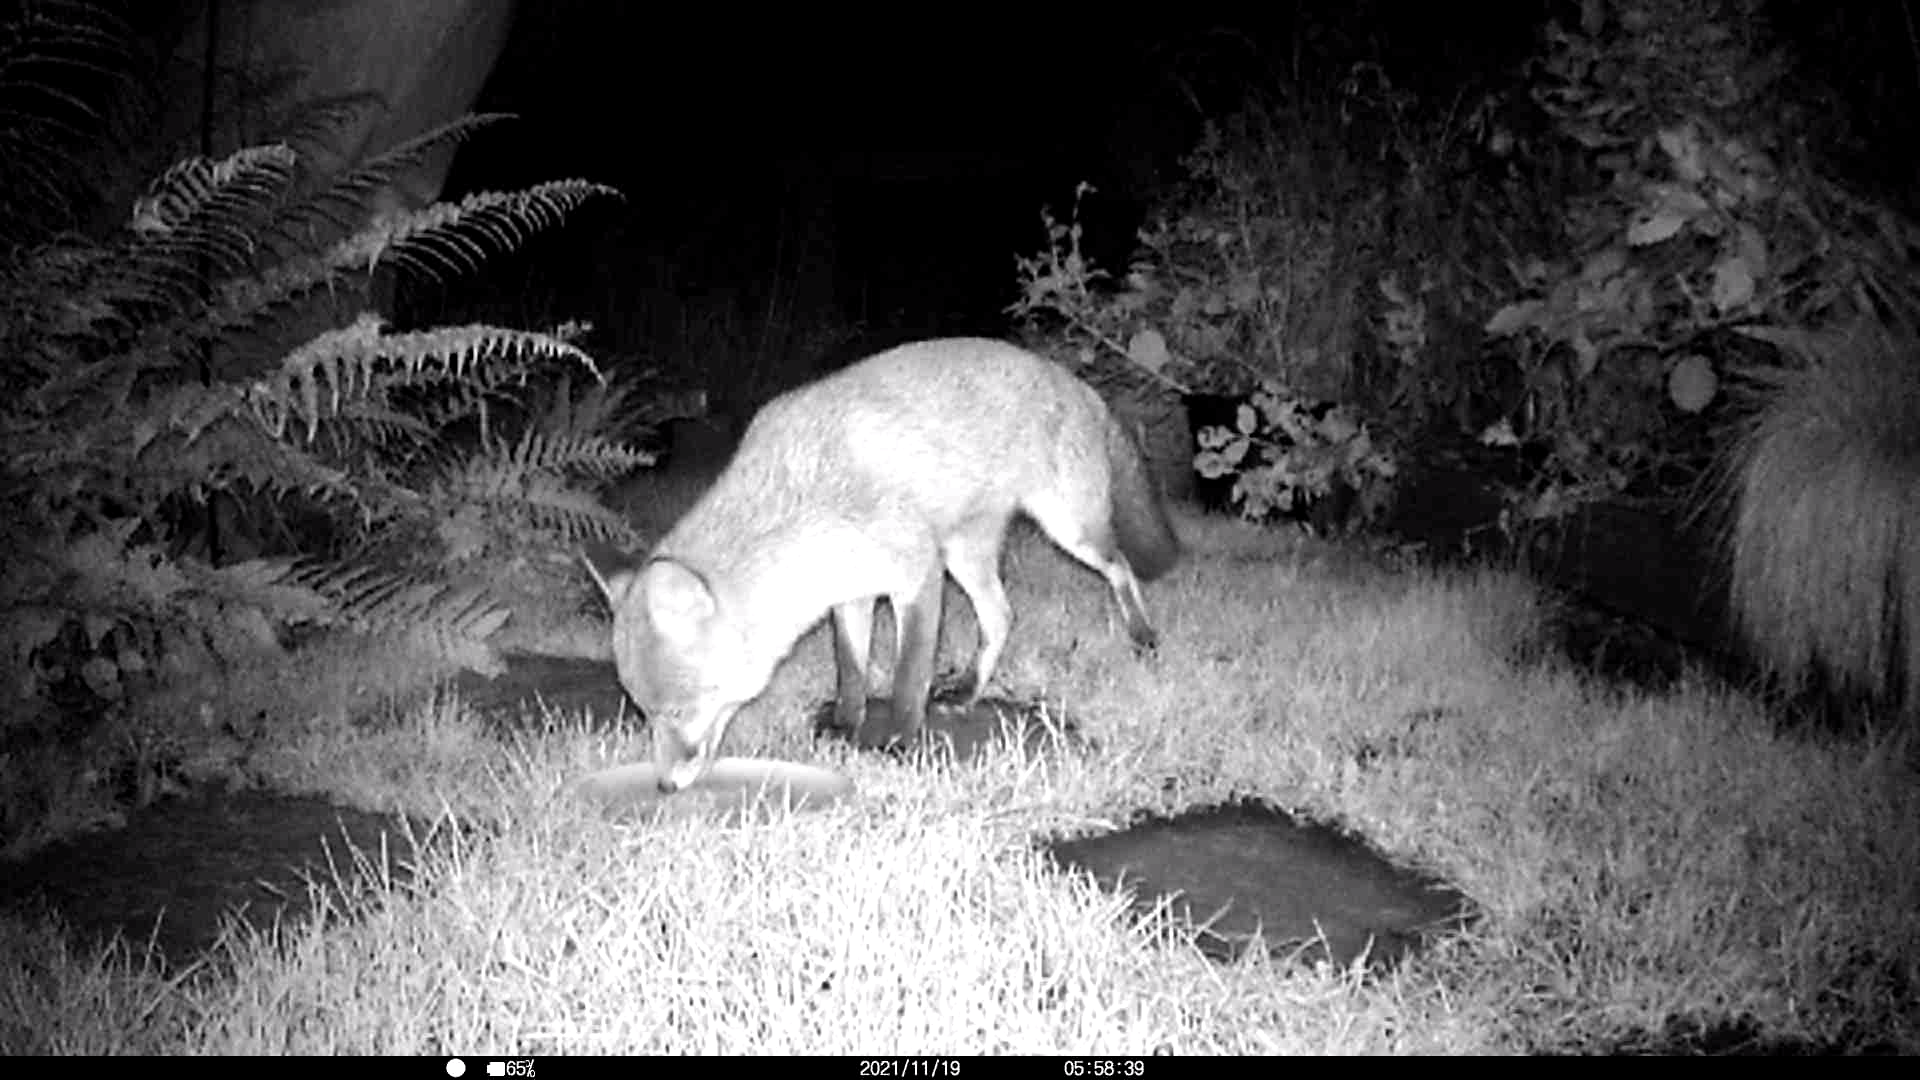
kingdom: Animalia
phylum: Chordata
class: Mammalia
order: Carnivora
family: Canidae
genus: Vulpes
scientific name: Vulpes vulpes
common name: Red fox
